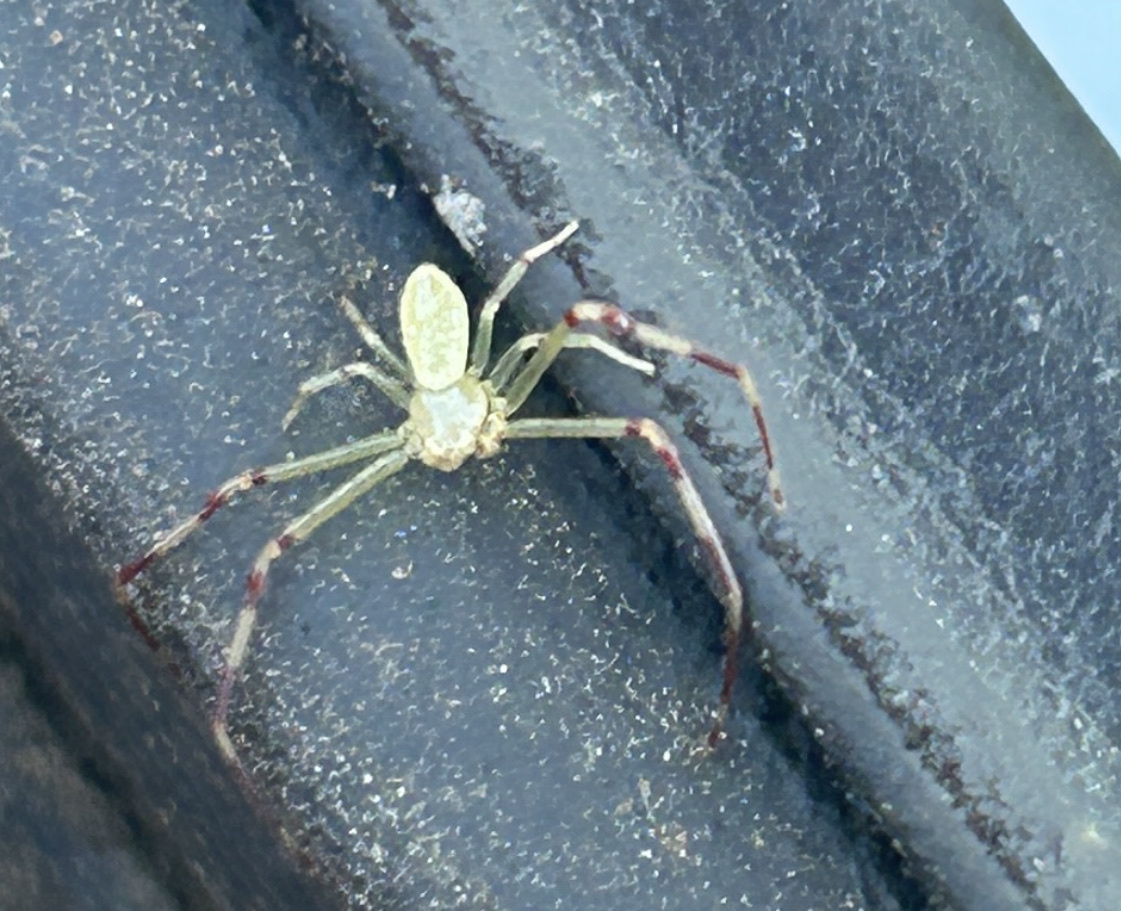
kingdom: Animalia
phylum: Arthropoda
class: Arachnida
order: Araneae
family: Thomisidae
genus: Misumessus
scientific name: Misumessus oblongus
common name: American green crab spider
